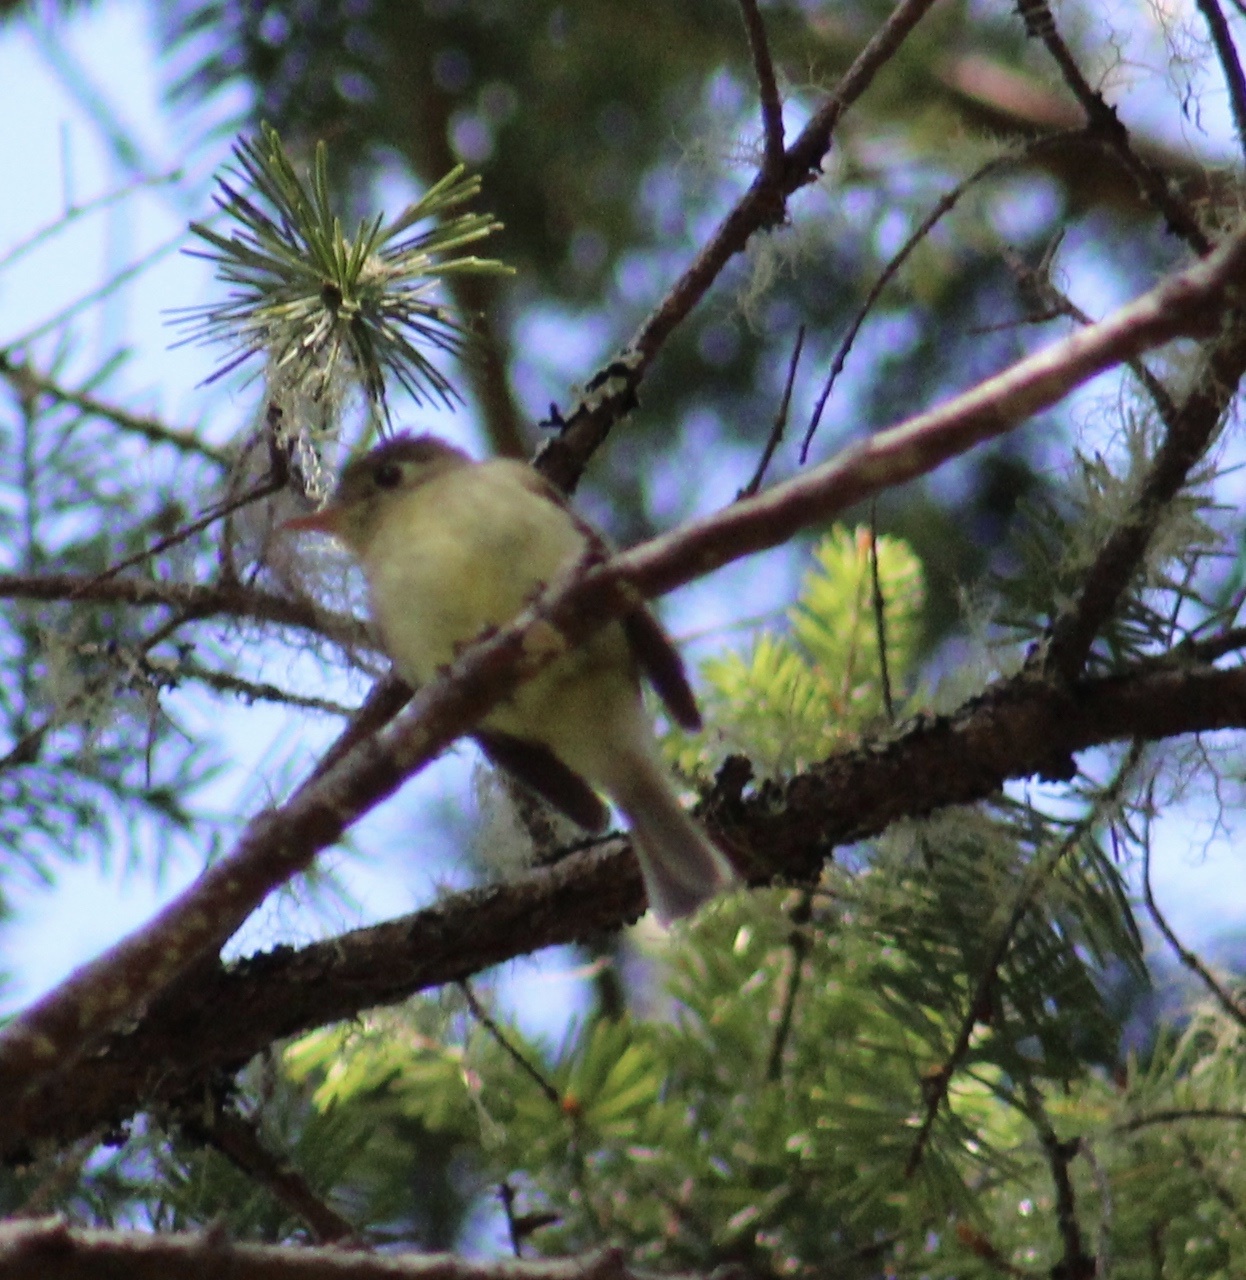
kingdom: Animalia
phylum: Chordata
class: Aves
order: Passeriformes
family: Tyrannidae
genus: Empidonax
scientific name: Empidonax difficilis
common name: Pacific-slope flycatcher
